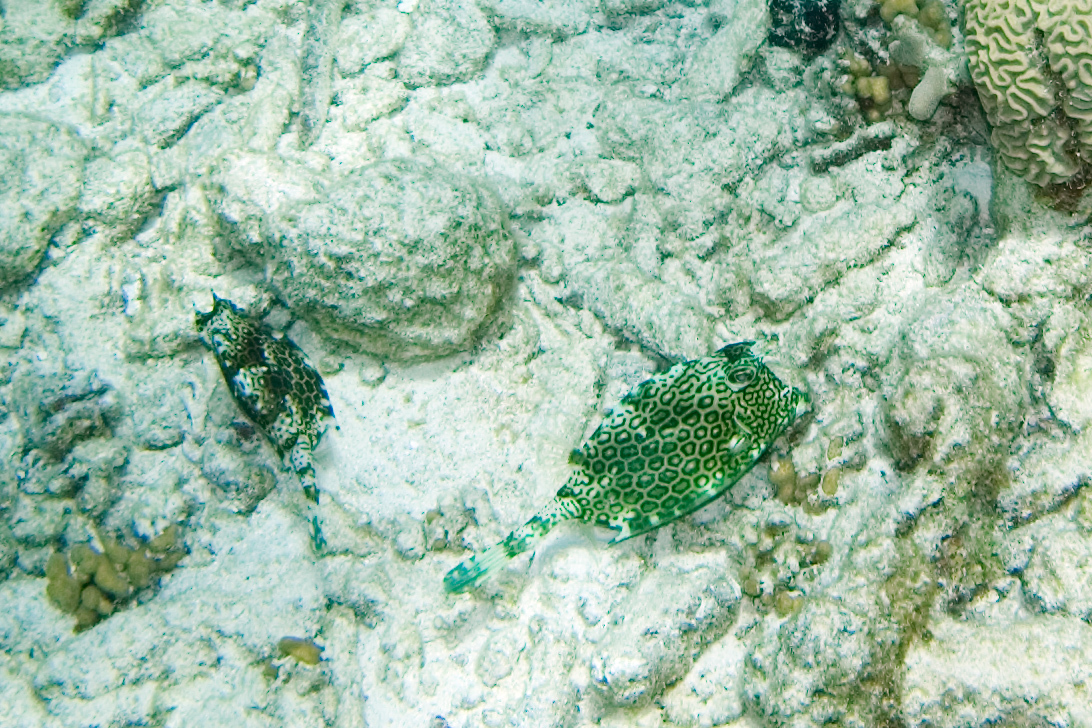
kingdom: Animalia
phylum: Chordata
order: Tetraodontiformes
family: Ostraciidae
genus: Acanthostracion
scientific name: Acanthostracion polygonius
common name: Honeycomb cowfish
